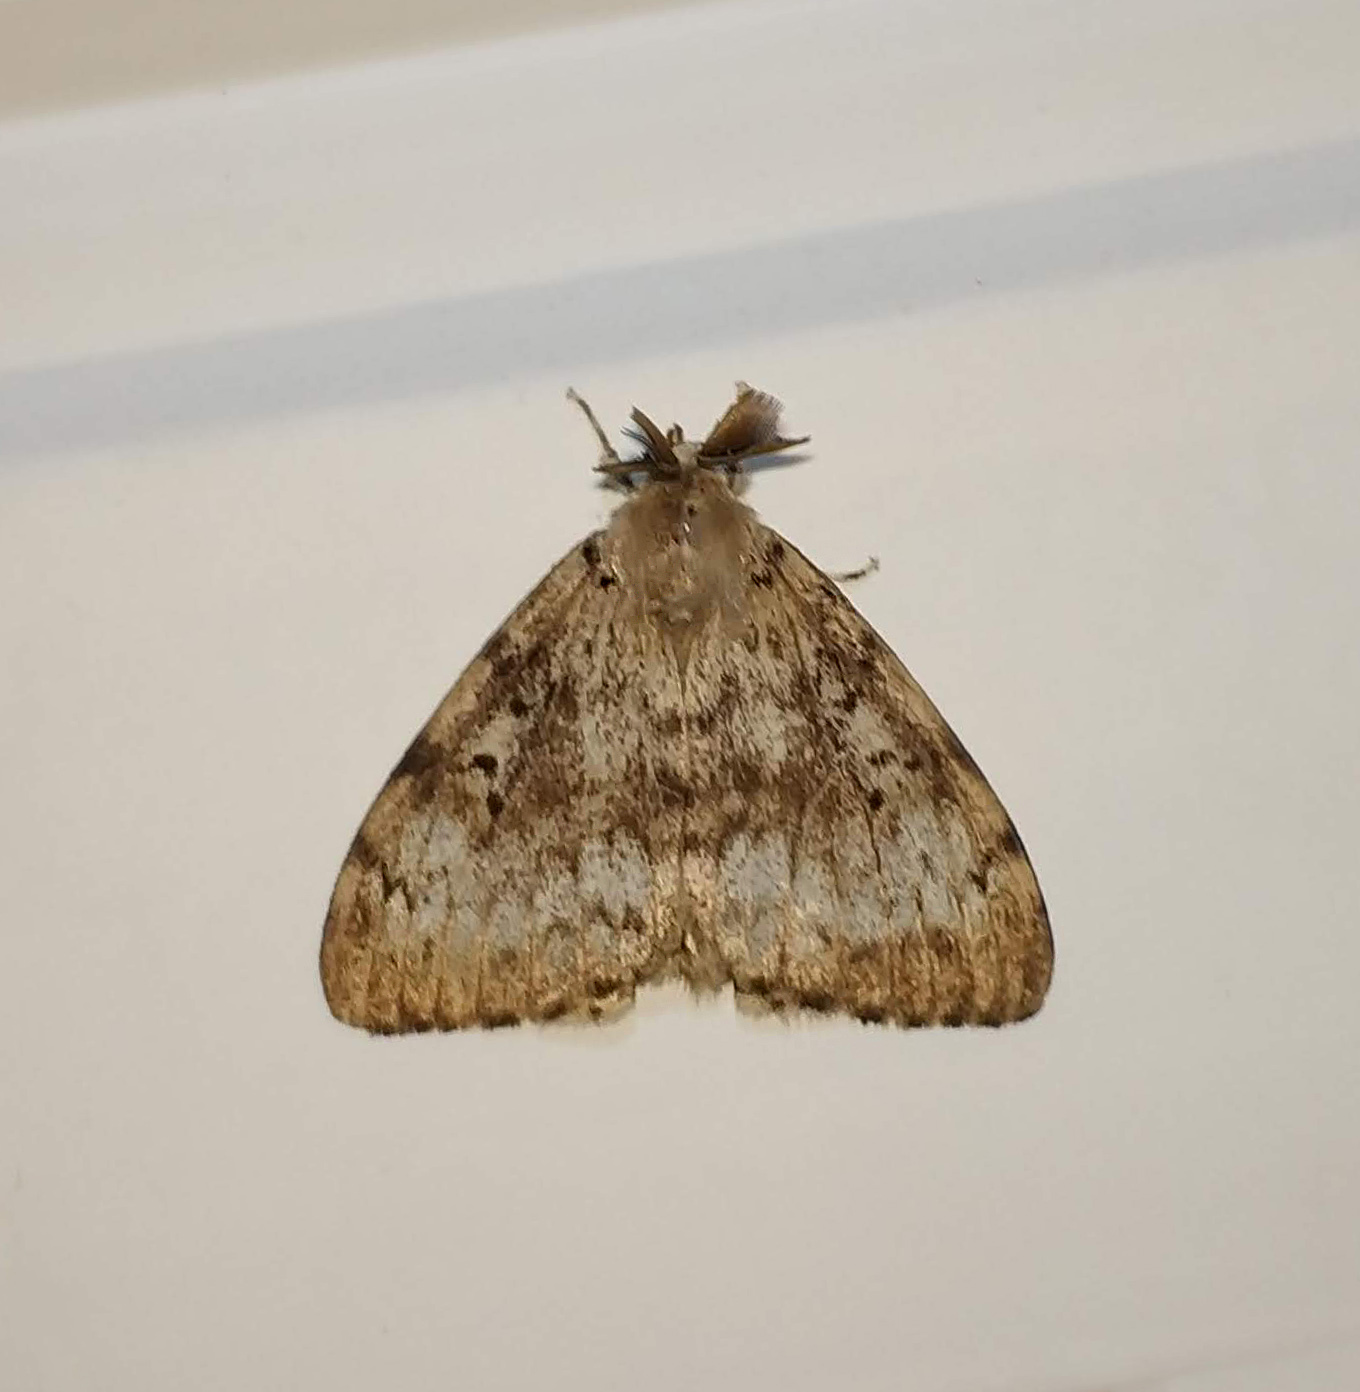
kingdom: Animalia
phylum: Arthropoda
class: Insecta
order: Lepidoptera
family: Erebidae
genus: Lymantria
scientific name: Lymantria dispar
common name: Gypsy moth
